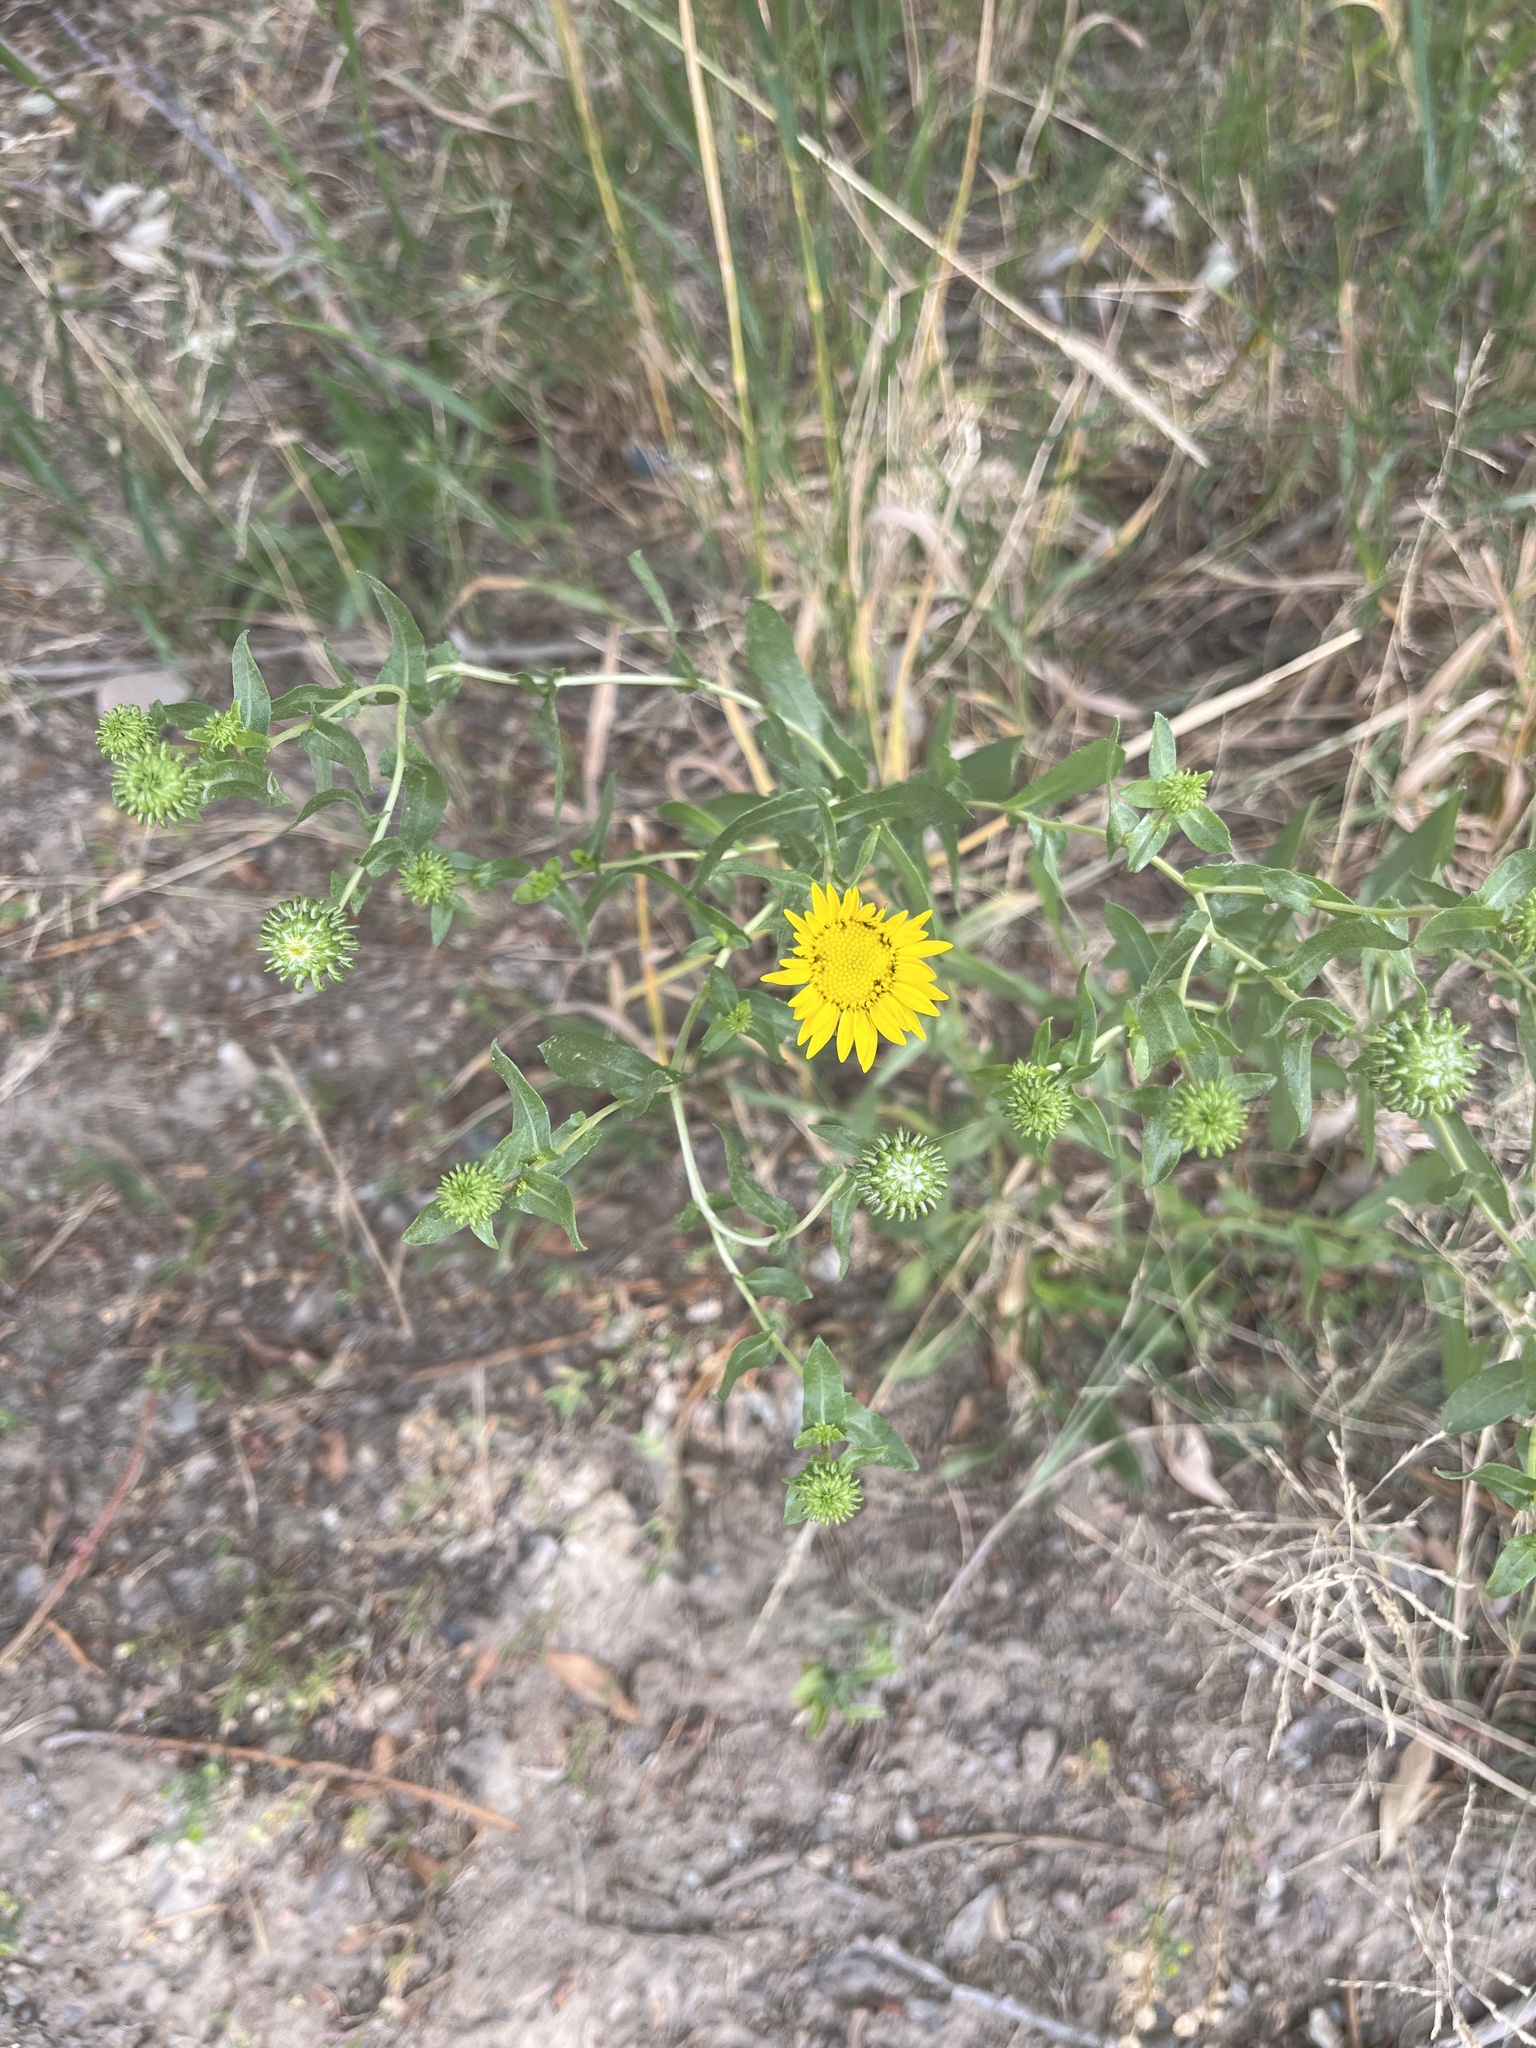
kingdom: Plantae
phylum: Tracheophyta
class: Magnoliopsida
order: Asterales
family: Asteraceae
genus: Grindelia
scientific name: Grindelia squarrosa
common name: Curly-cup gumweed
